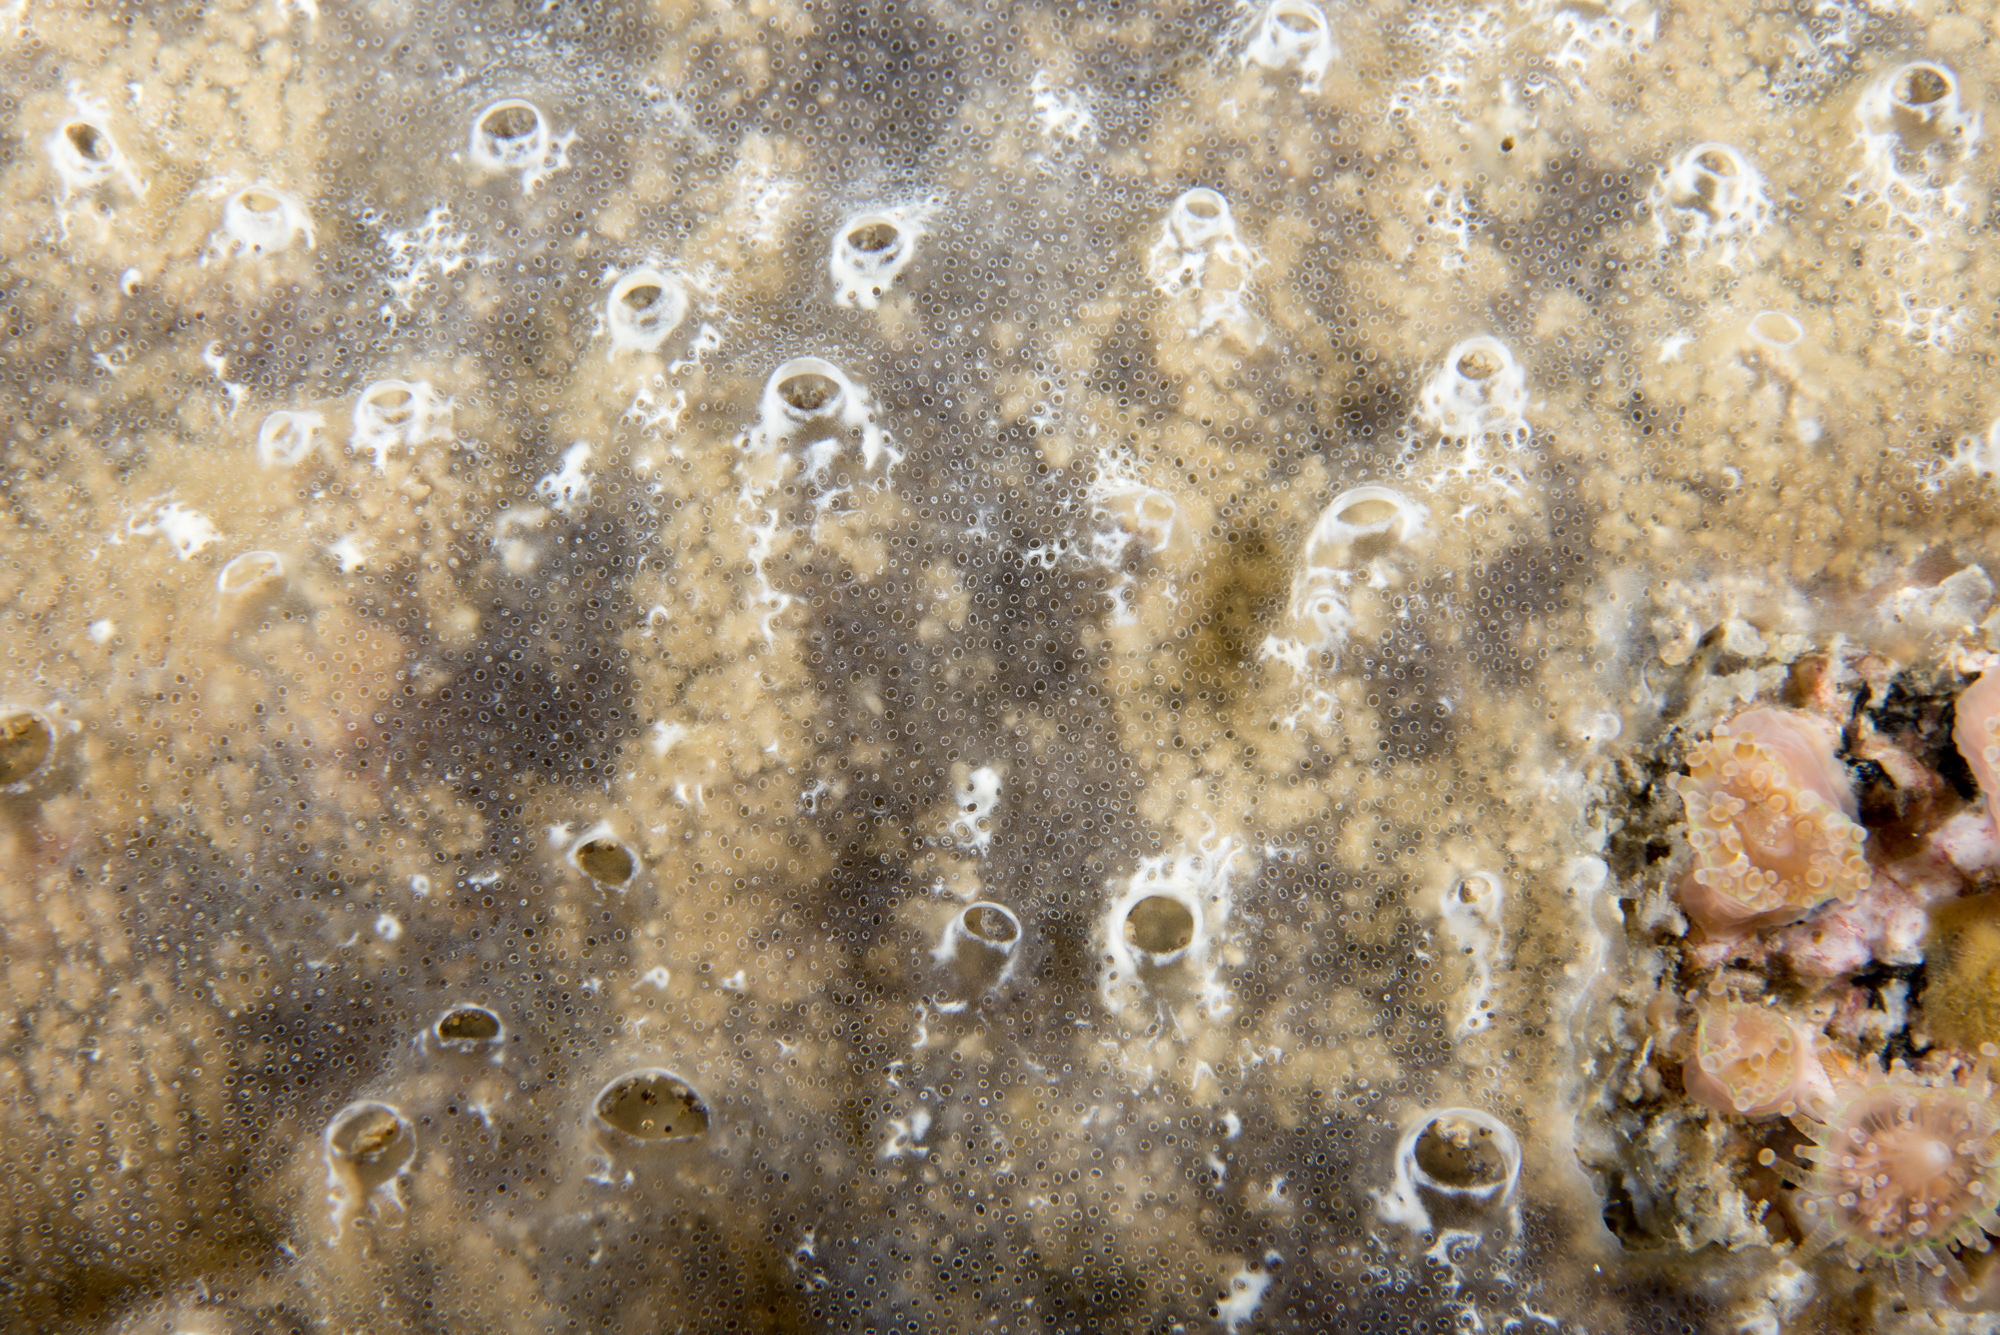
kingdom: Animalia
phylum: Chordata
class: Ascidiacea
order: Aplousobranchia
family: Didemnidae
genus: Diplosoma
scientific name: Diplosoma spongiforme
